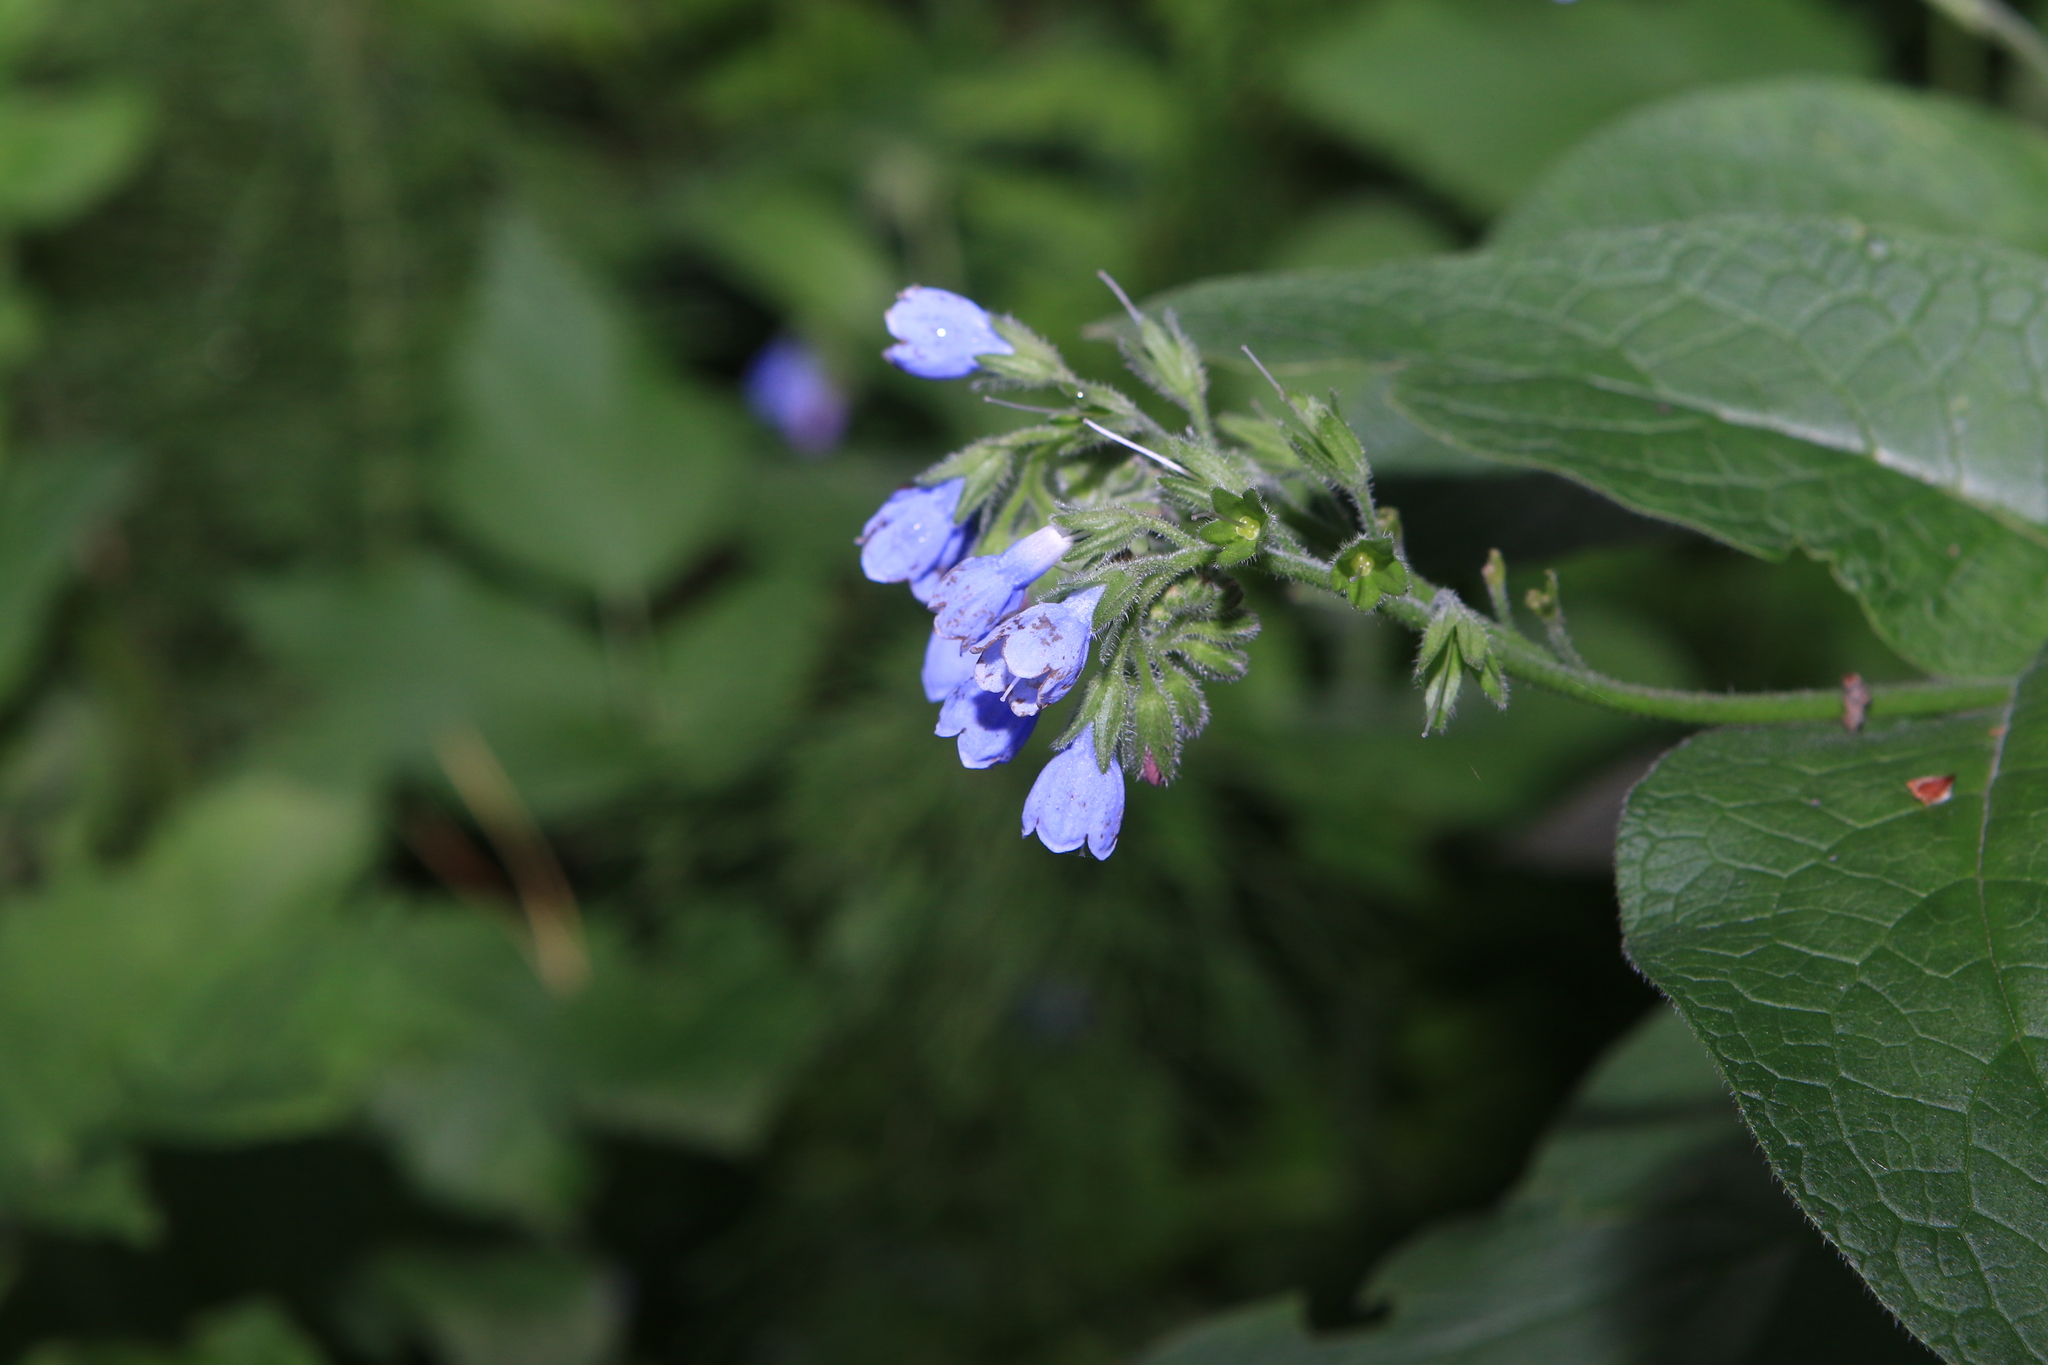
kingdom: Plantae
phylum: Tracheophyta
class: Magnoliopsida
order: Boraginales
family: Boraginaceae
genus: Symphytum
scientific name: Symphytum caucasicum
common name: Caucasian comfrey
